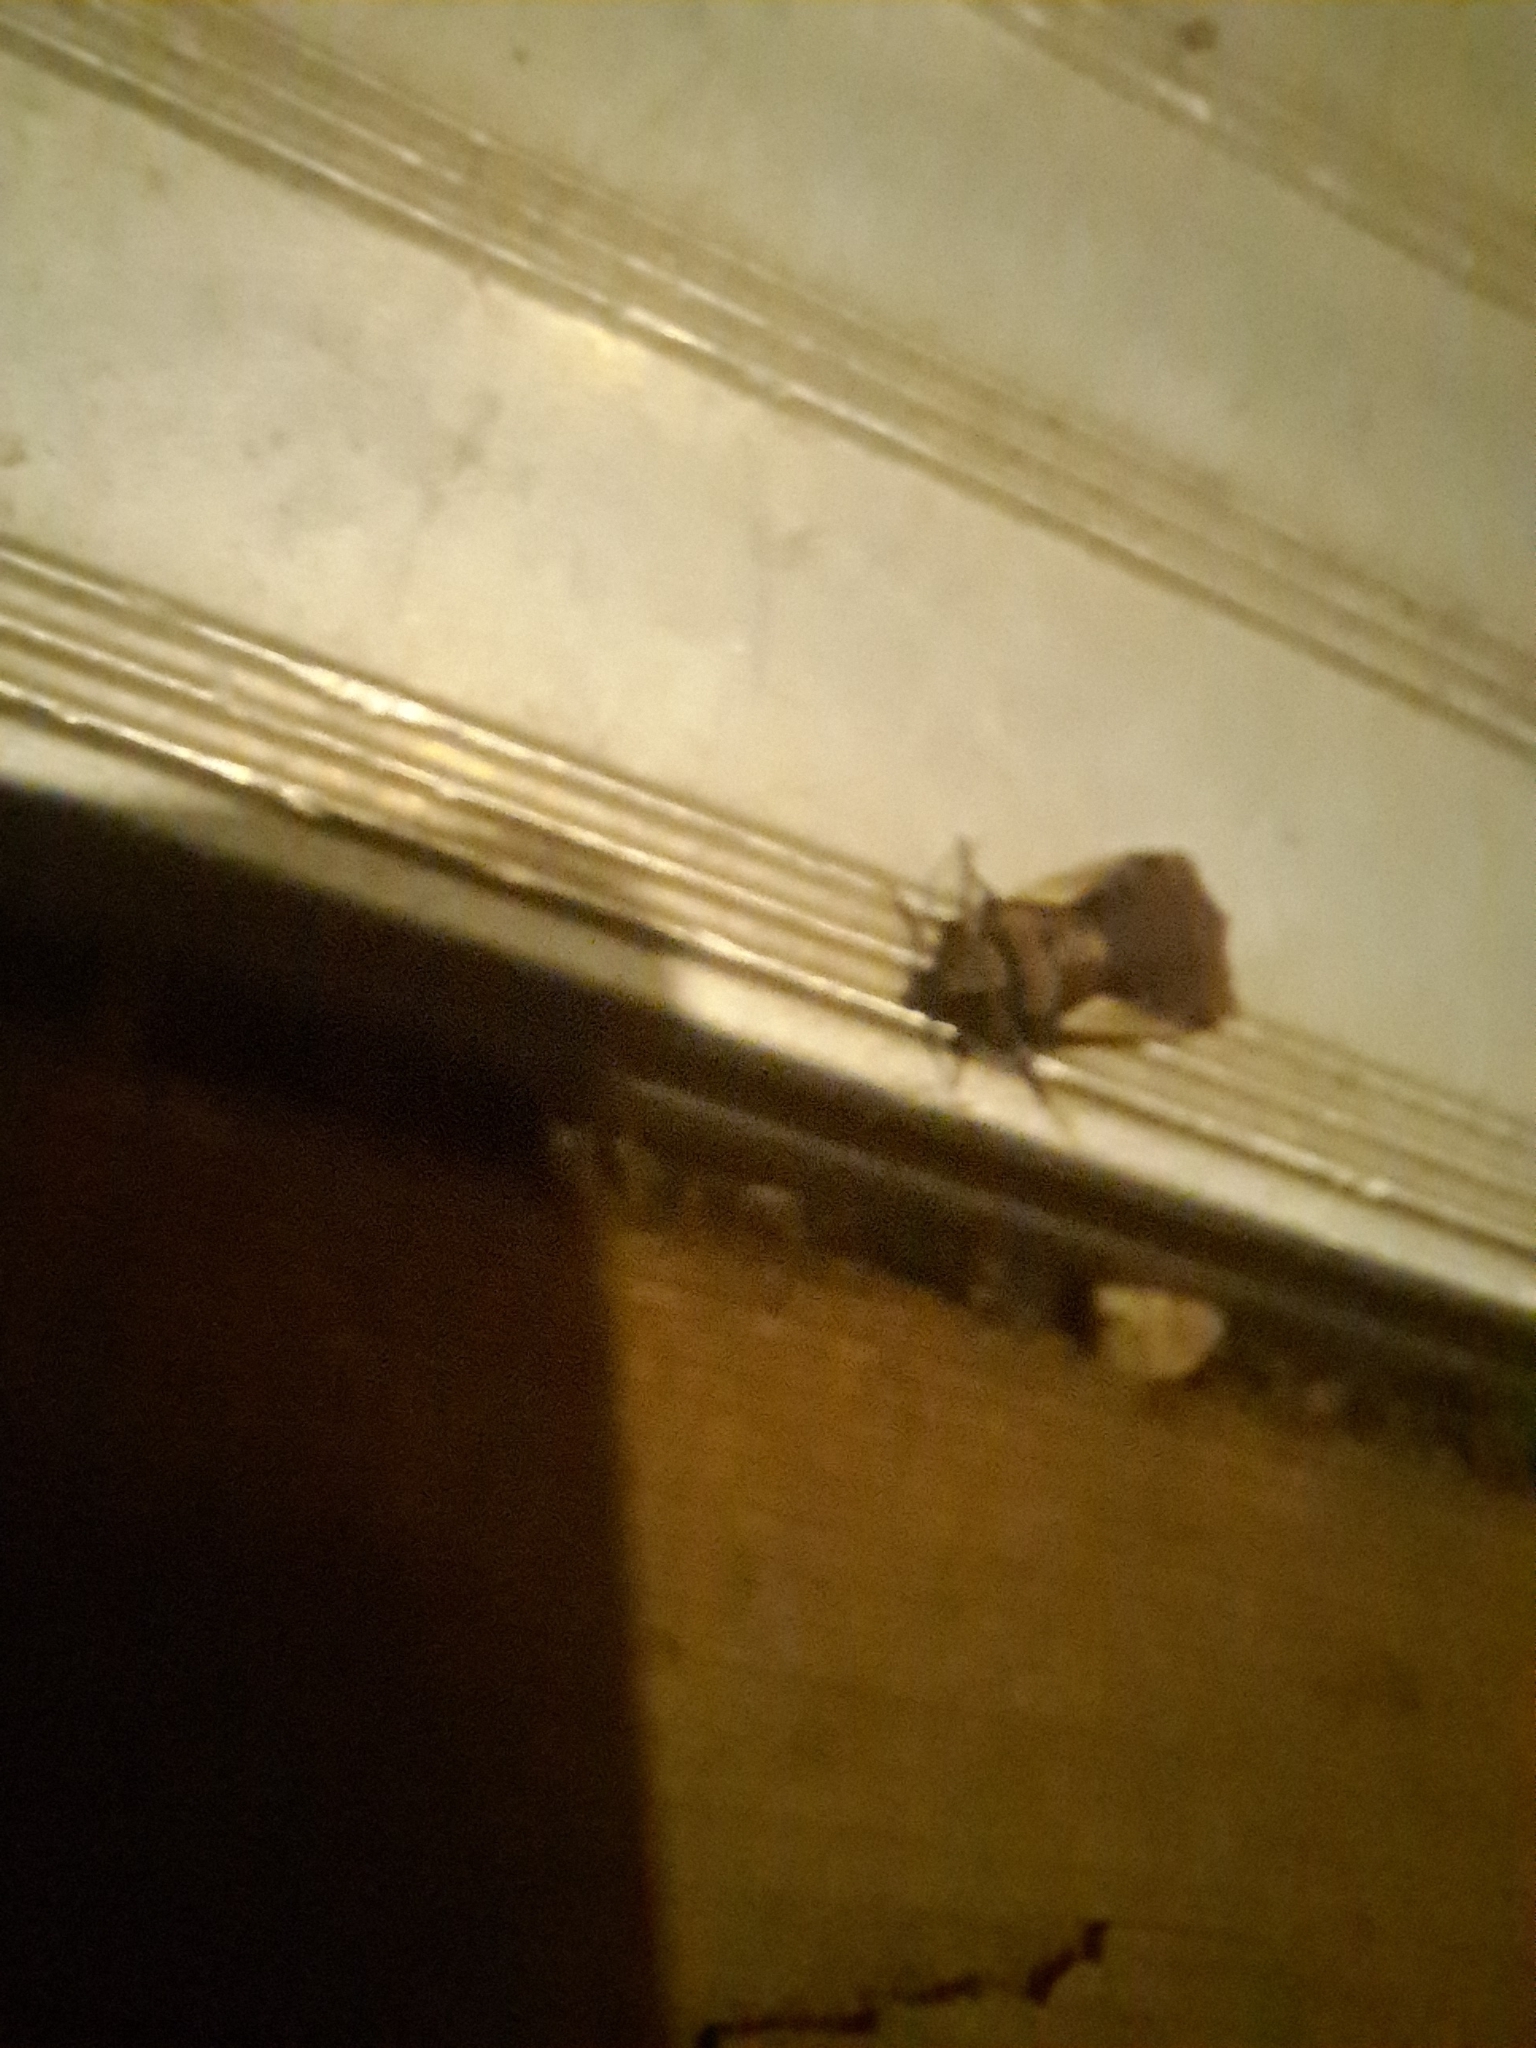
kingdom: Animalia
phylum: Arthropoda
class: Insecta
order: Lepidoptera
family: Noctuidae
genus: Ochropleura
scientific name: Ochropleura implecta
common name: Flame-shouldered dart
